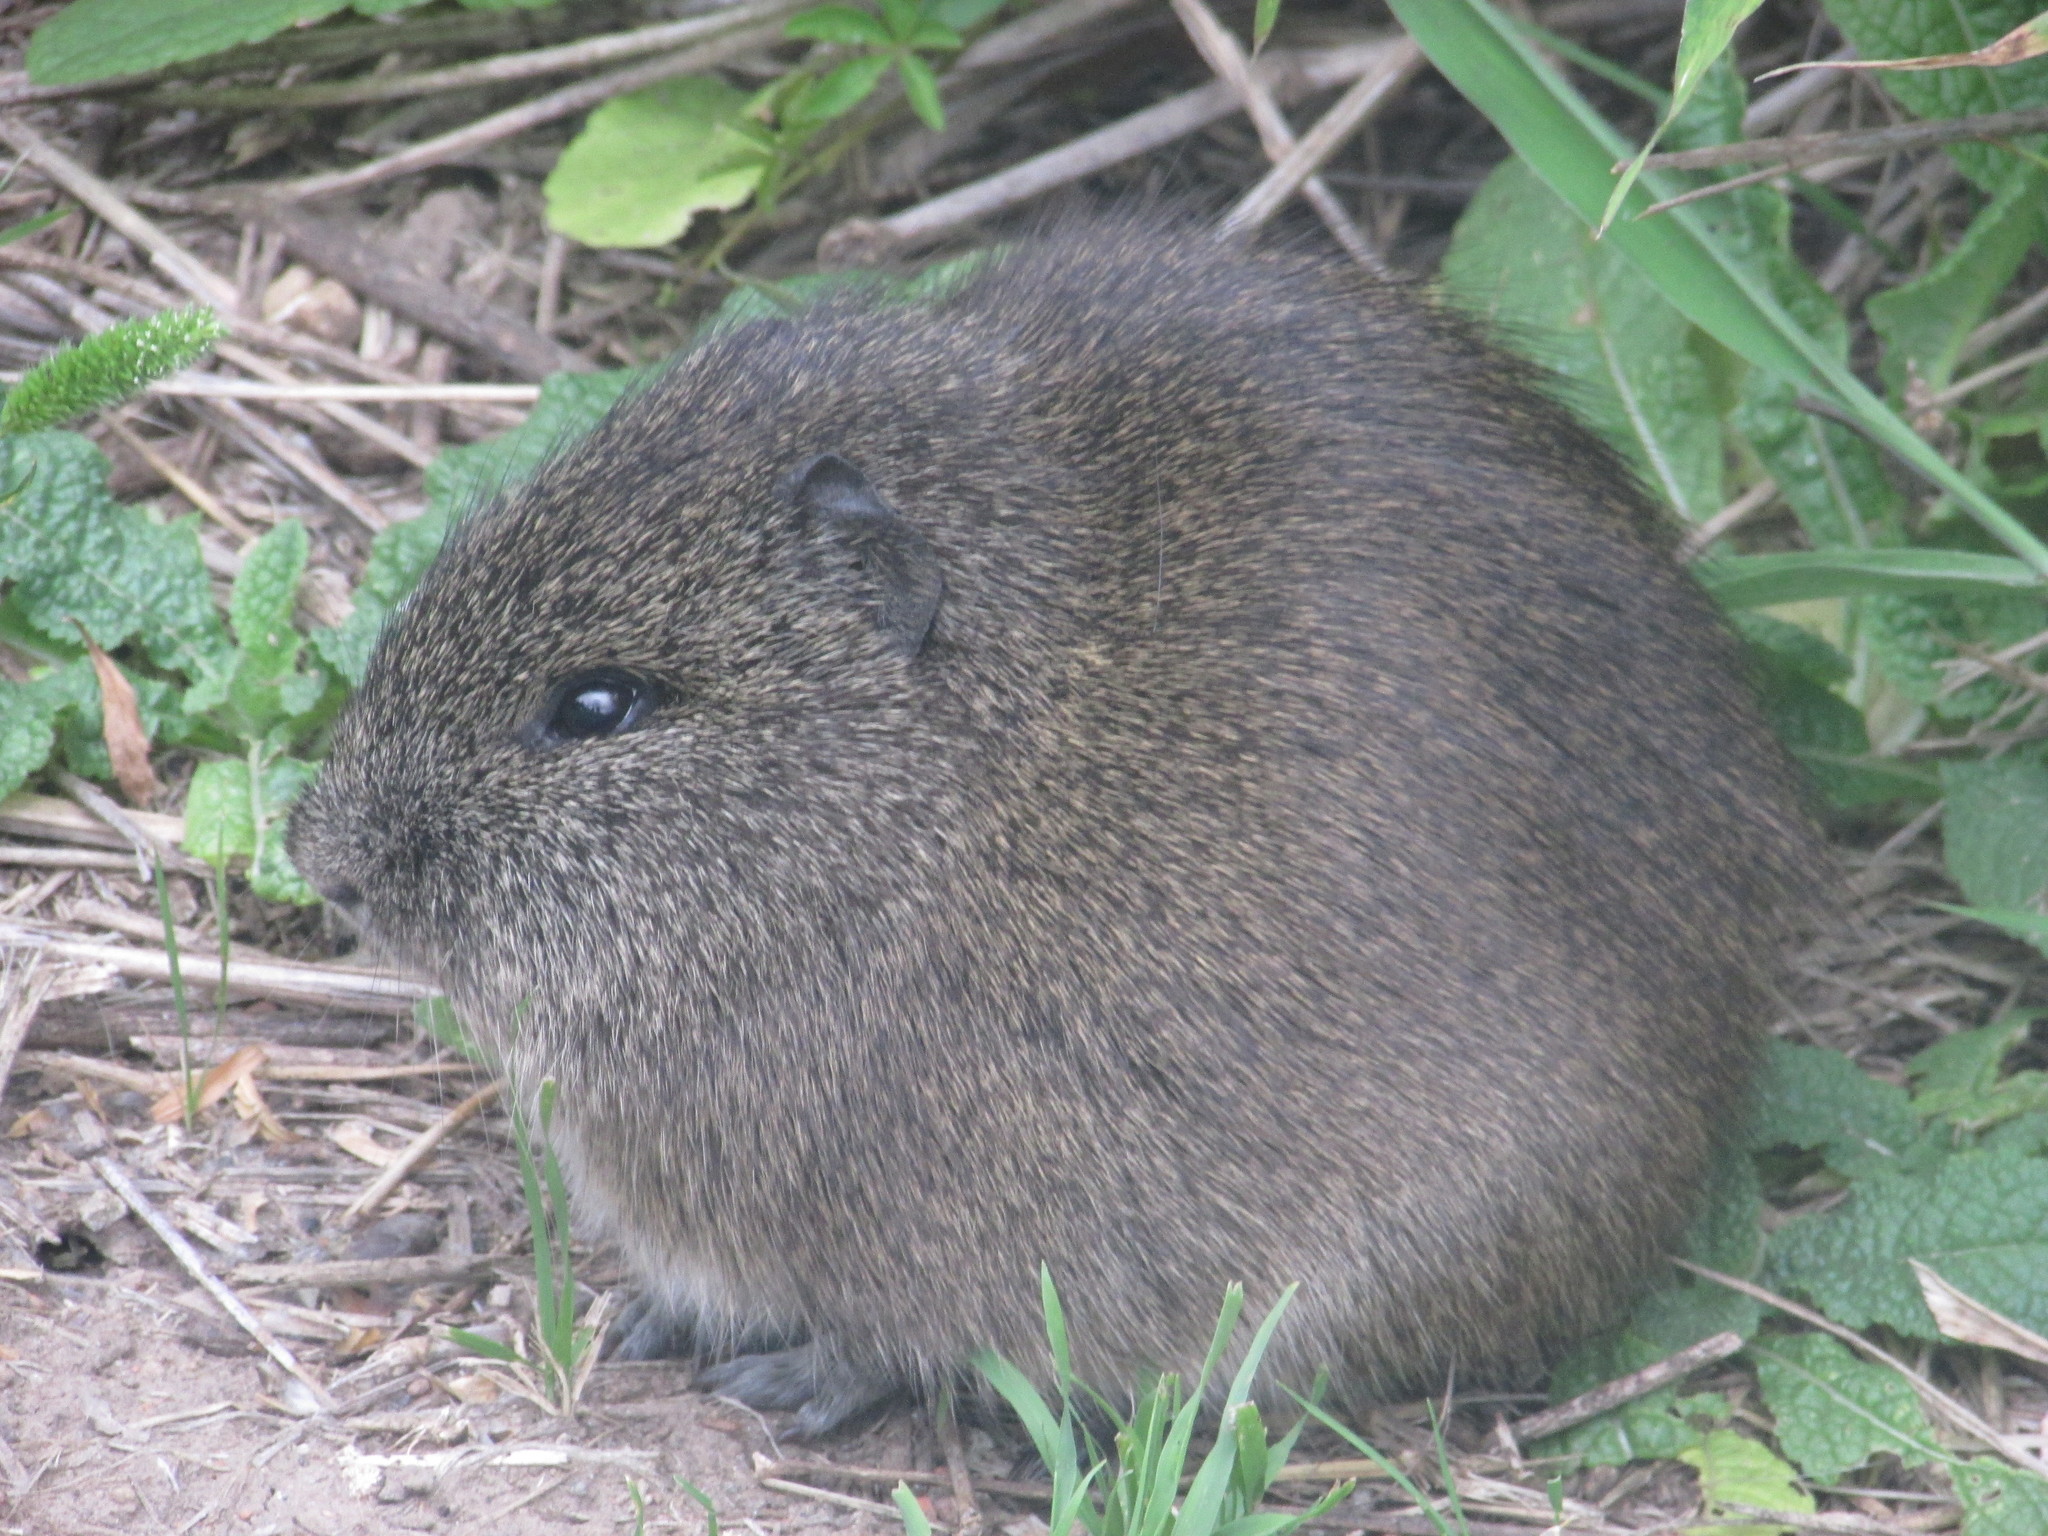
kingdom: Animalia
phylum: Chordata
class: Mammalia
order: Rodentia
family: Caviidae
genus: Cavia
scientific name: Cavia aperea
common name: Brazilian guinea pig
